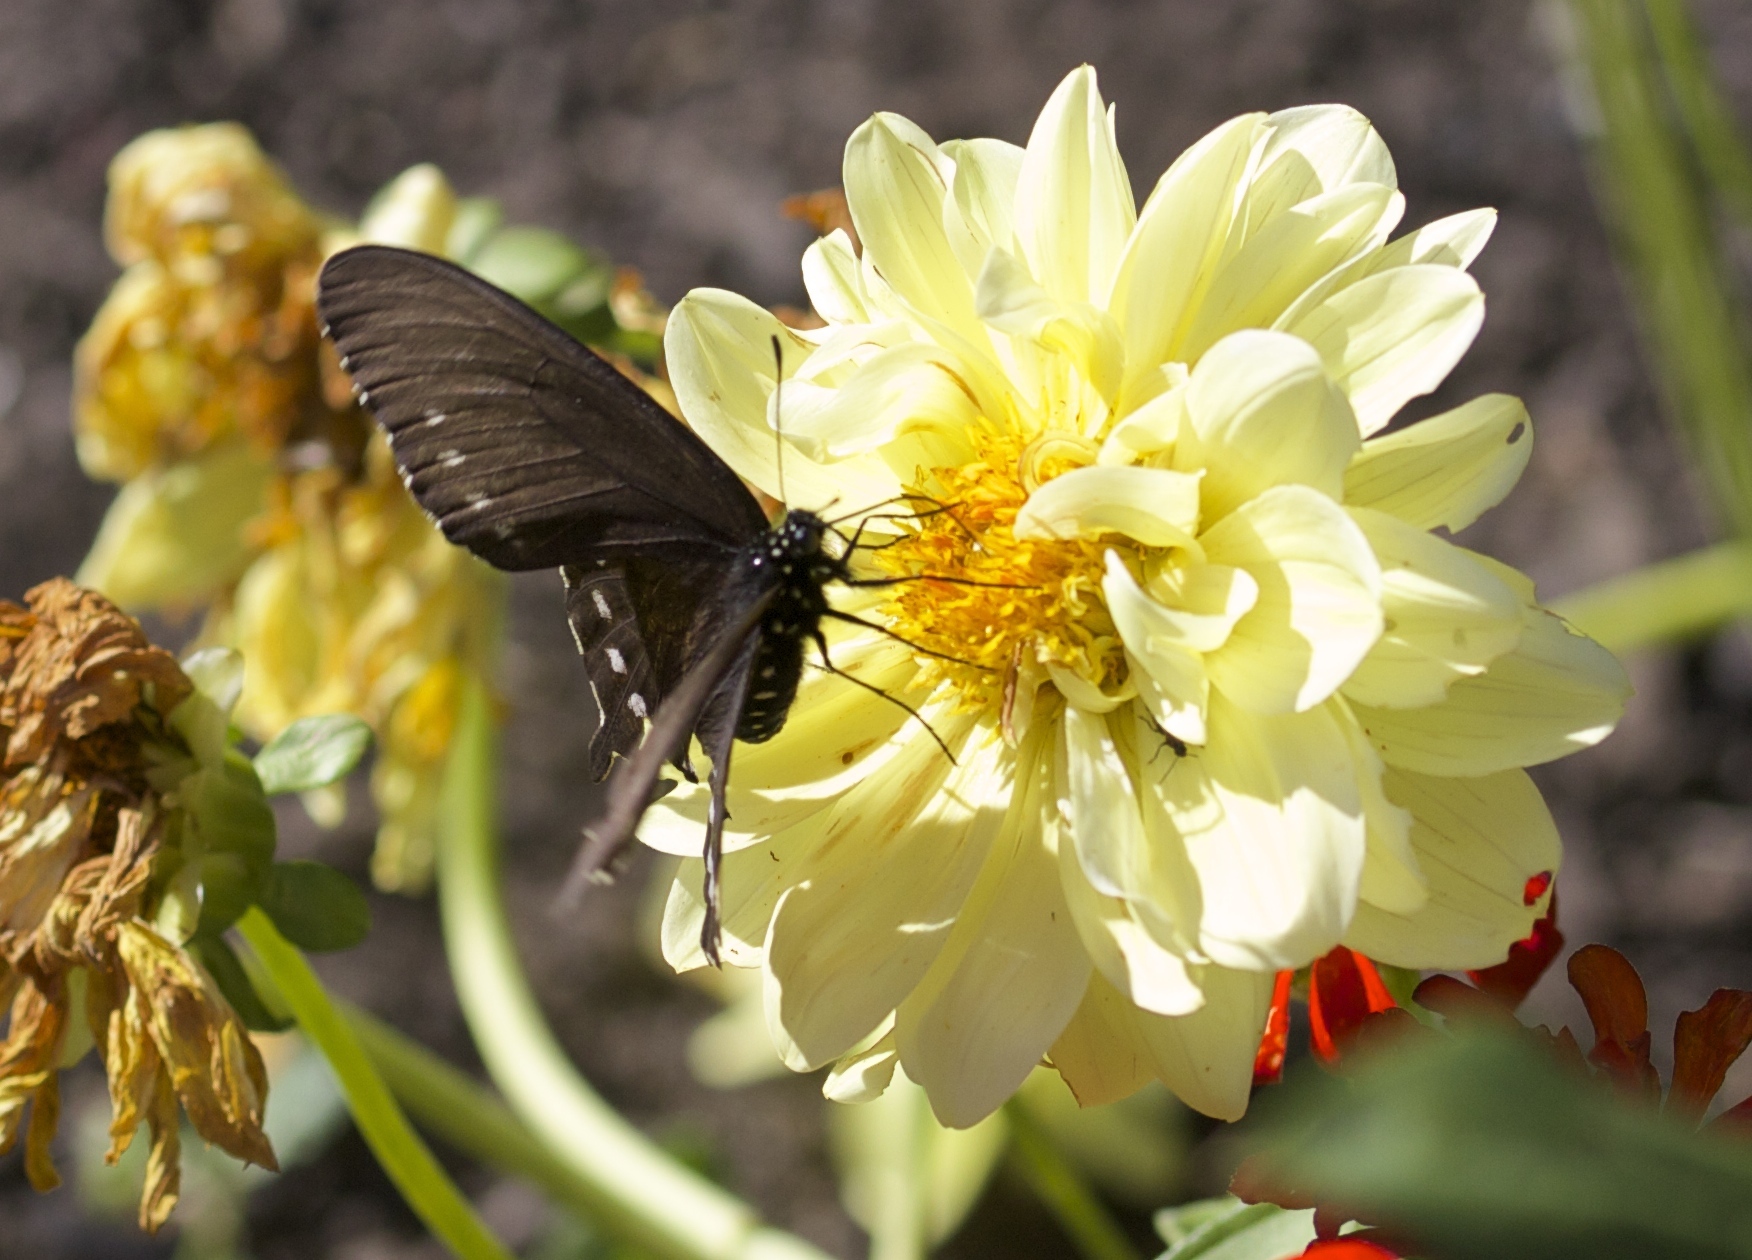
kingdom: Animalia
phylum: Arthropoda
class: Insecta
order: Lepidoptera
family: Papilionidae
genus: Battus
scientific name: Battus philenor
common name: Pipevine swallowtail
